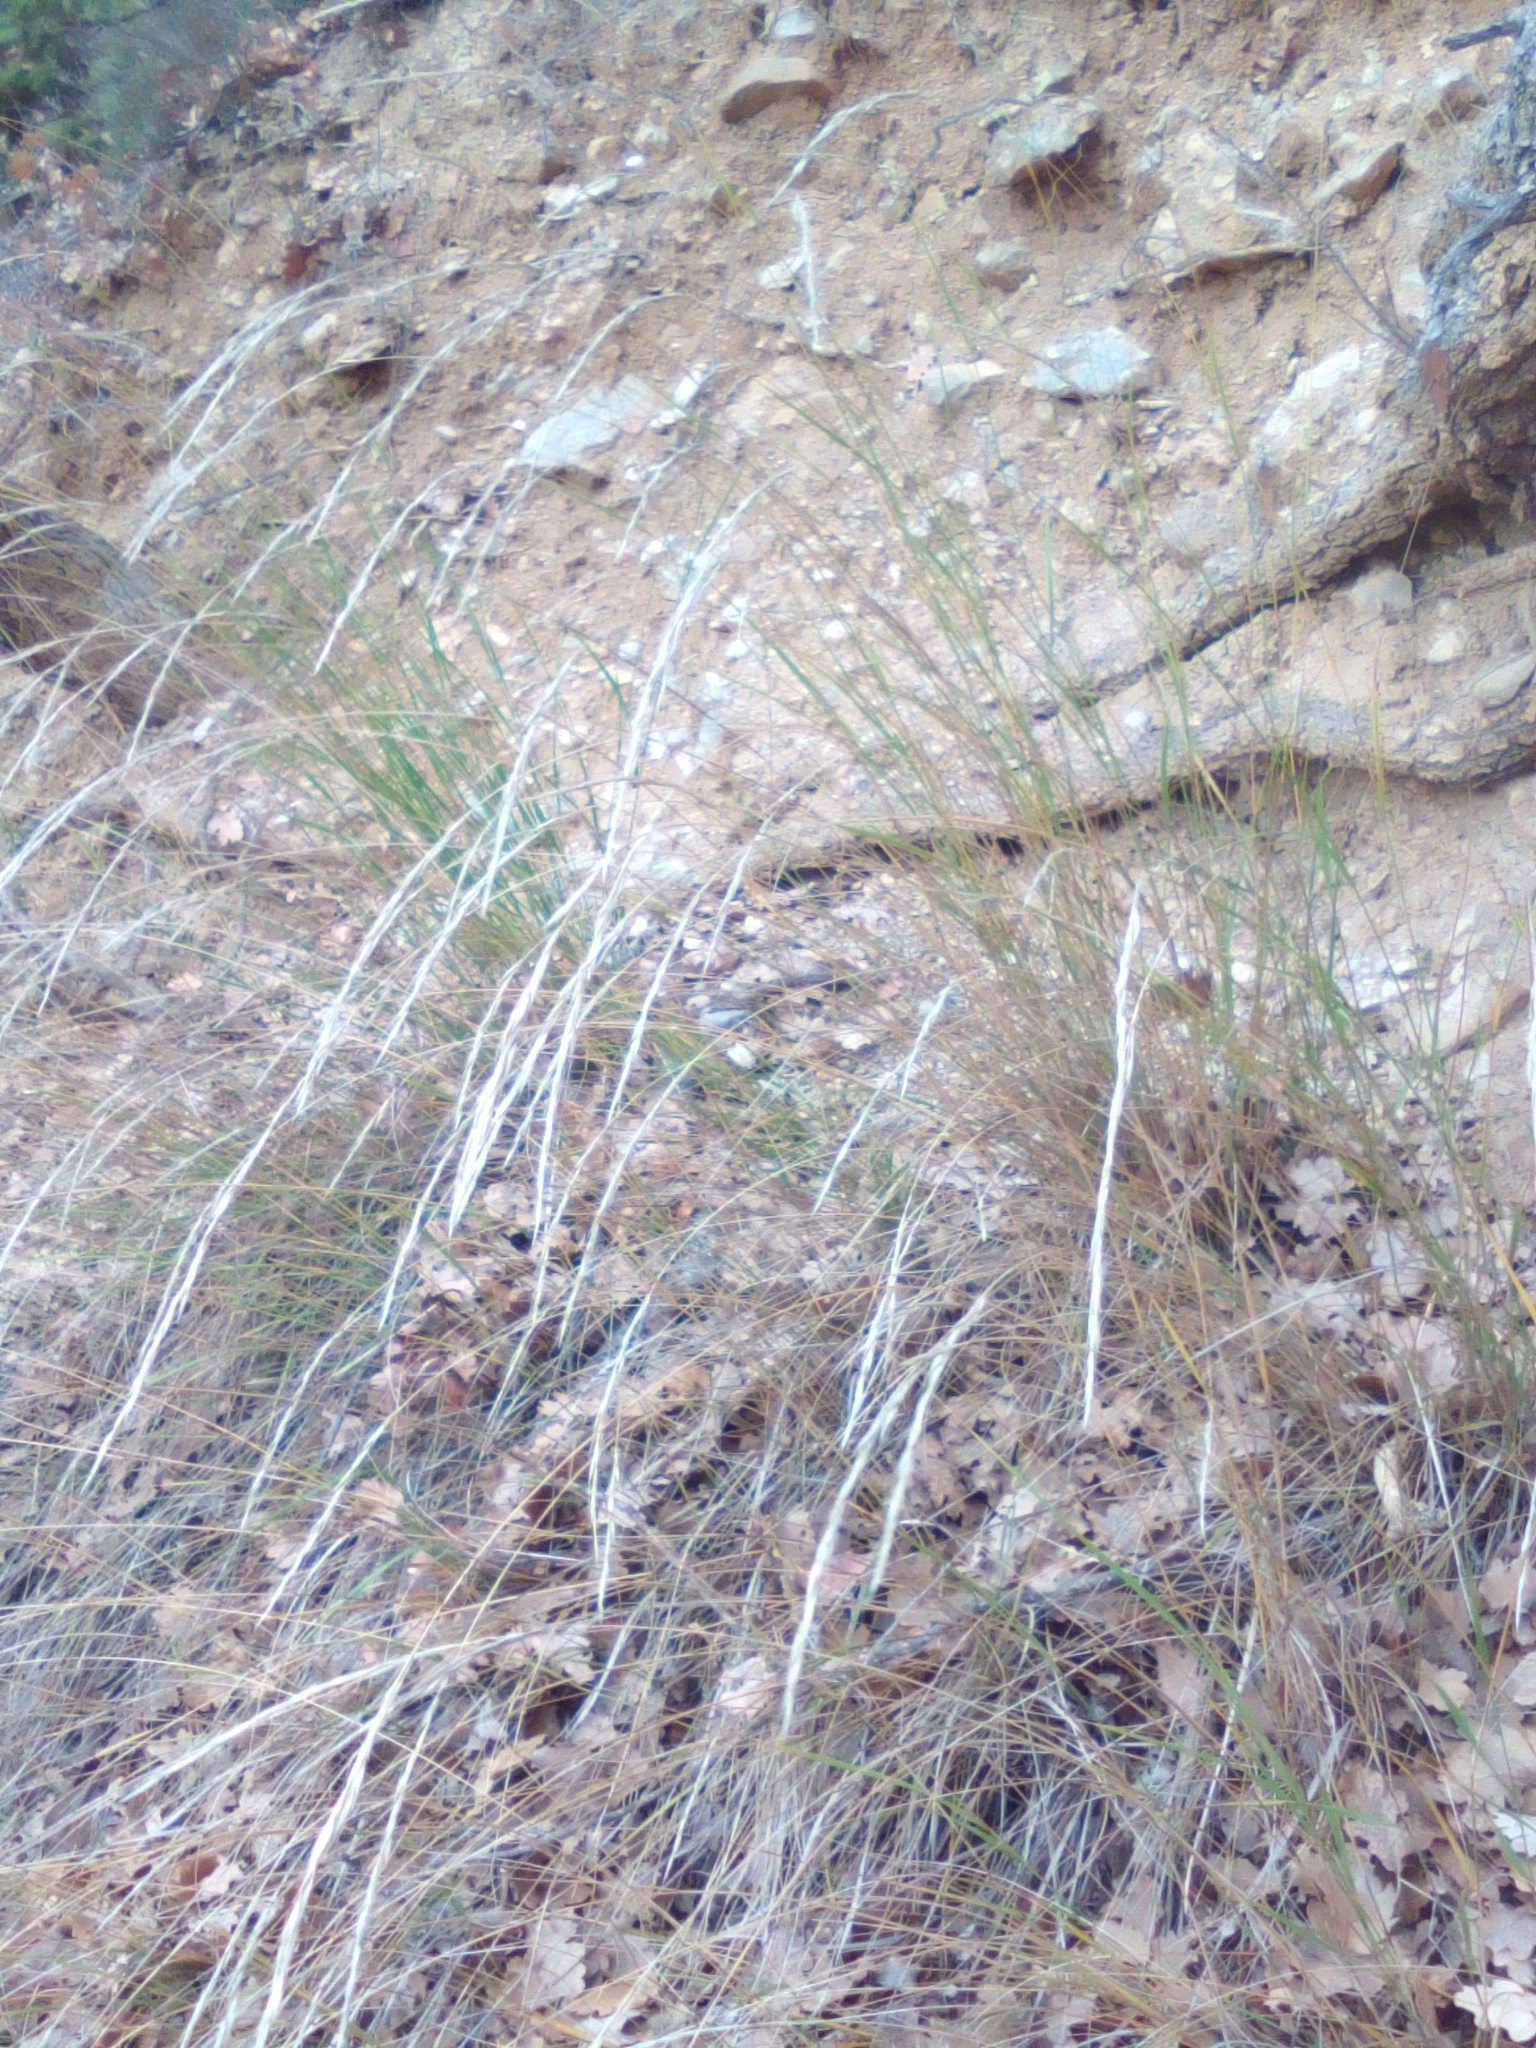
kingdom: Plantae
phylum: Tracheophyta
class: Liliopsida
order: Poales
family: Poaceae
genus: Achnatherum
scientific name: Achnatherum bromoides
